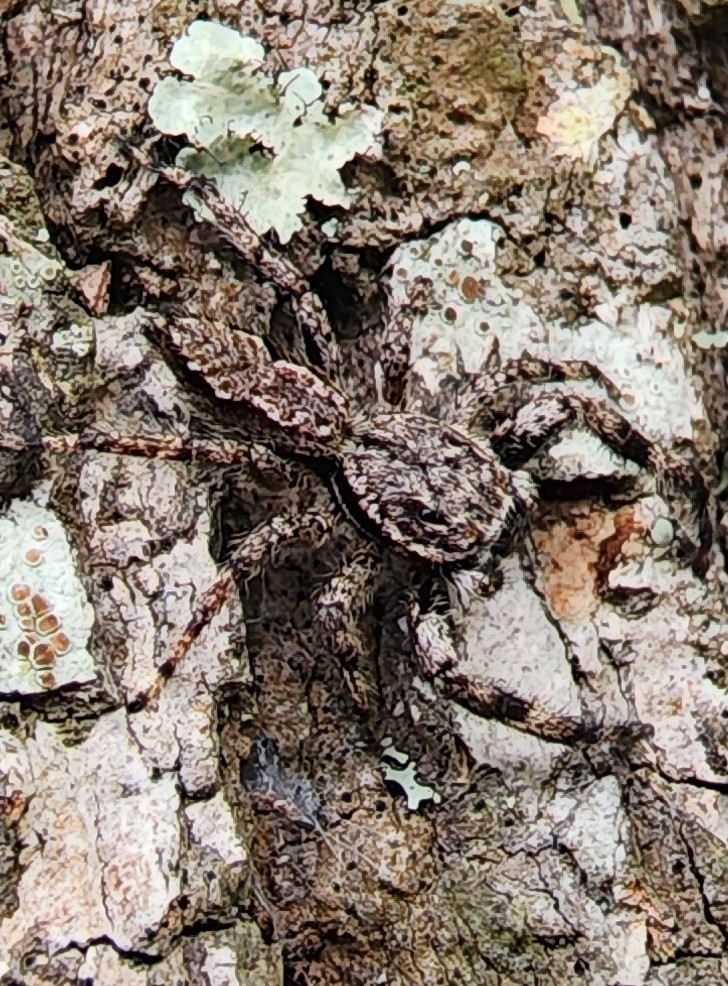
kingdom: Animalia
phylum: Arthropoda
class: Arachnida
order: Araneae
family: Salticidae
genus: Platycryptus
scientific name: Platycryptus undatus
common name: Tan jumping spider
